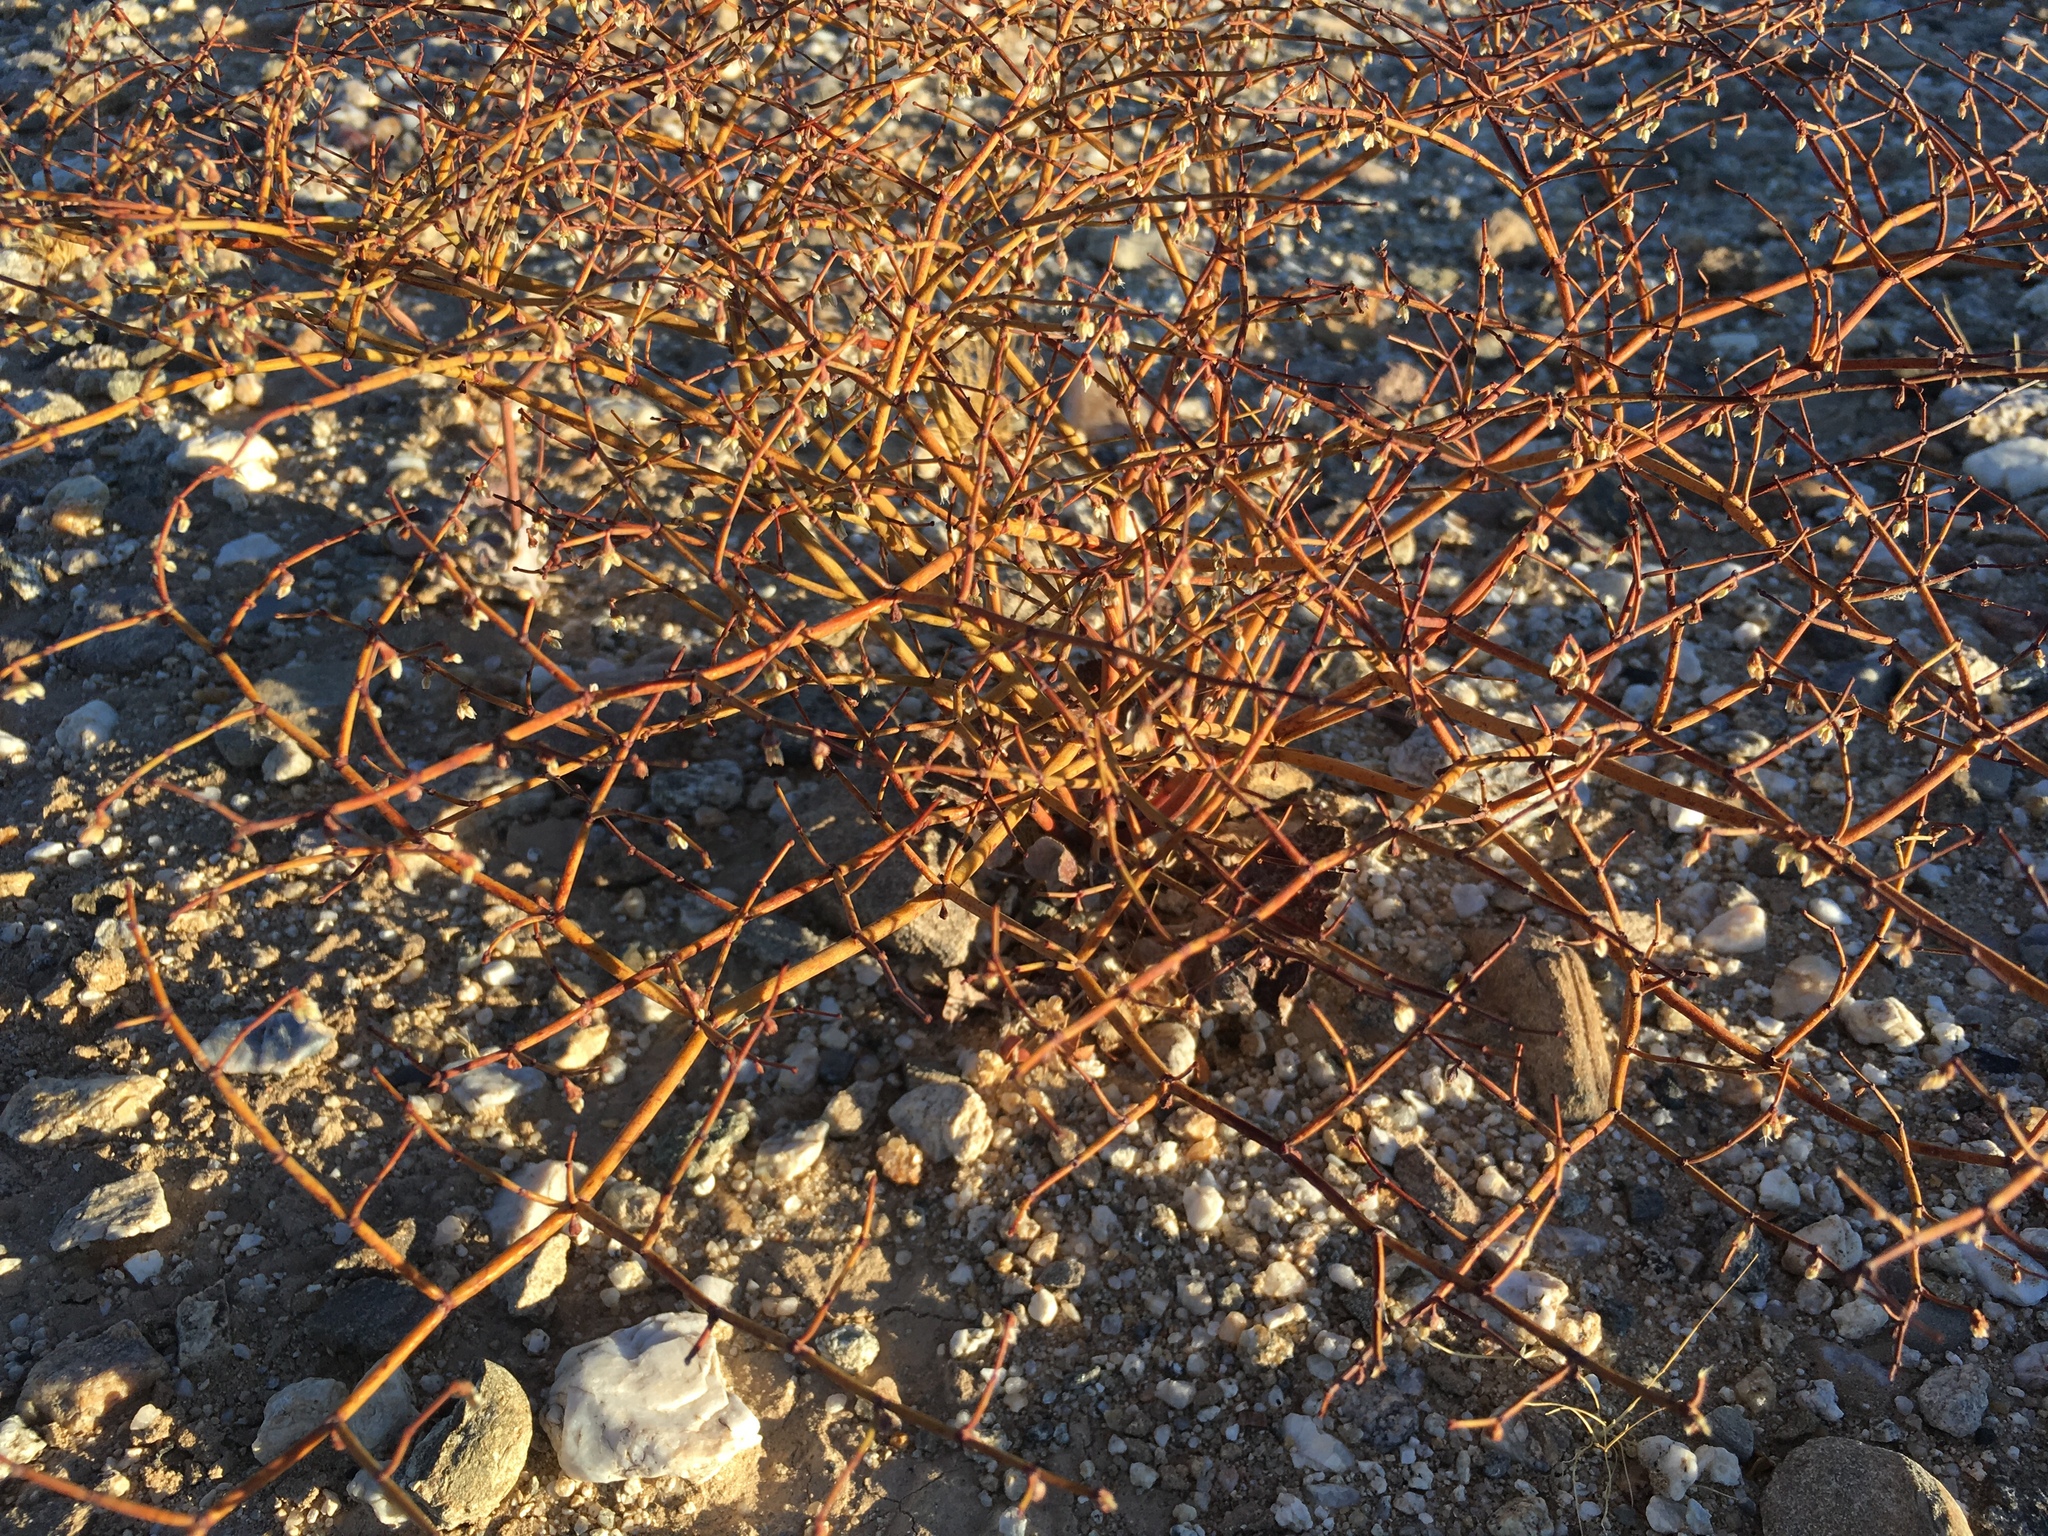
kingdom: Plantae
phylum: Tracheophyta
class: Magnoliopsida
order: Caryophyllales
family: Polygonaceae
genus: Eriogonum
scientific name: Eriogonum deflexum
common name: Skeleton-weed
